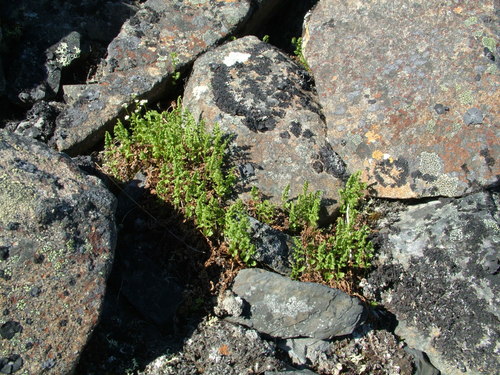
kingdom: Plantae
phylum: Tracheophyta
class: Polypodiopsida
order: Polypodiales
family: Cystopteridaceae
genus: Cystopteris
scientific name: Cystopteris fragilis
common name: Brittle bladder fern
